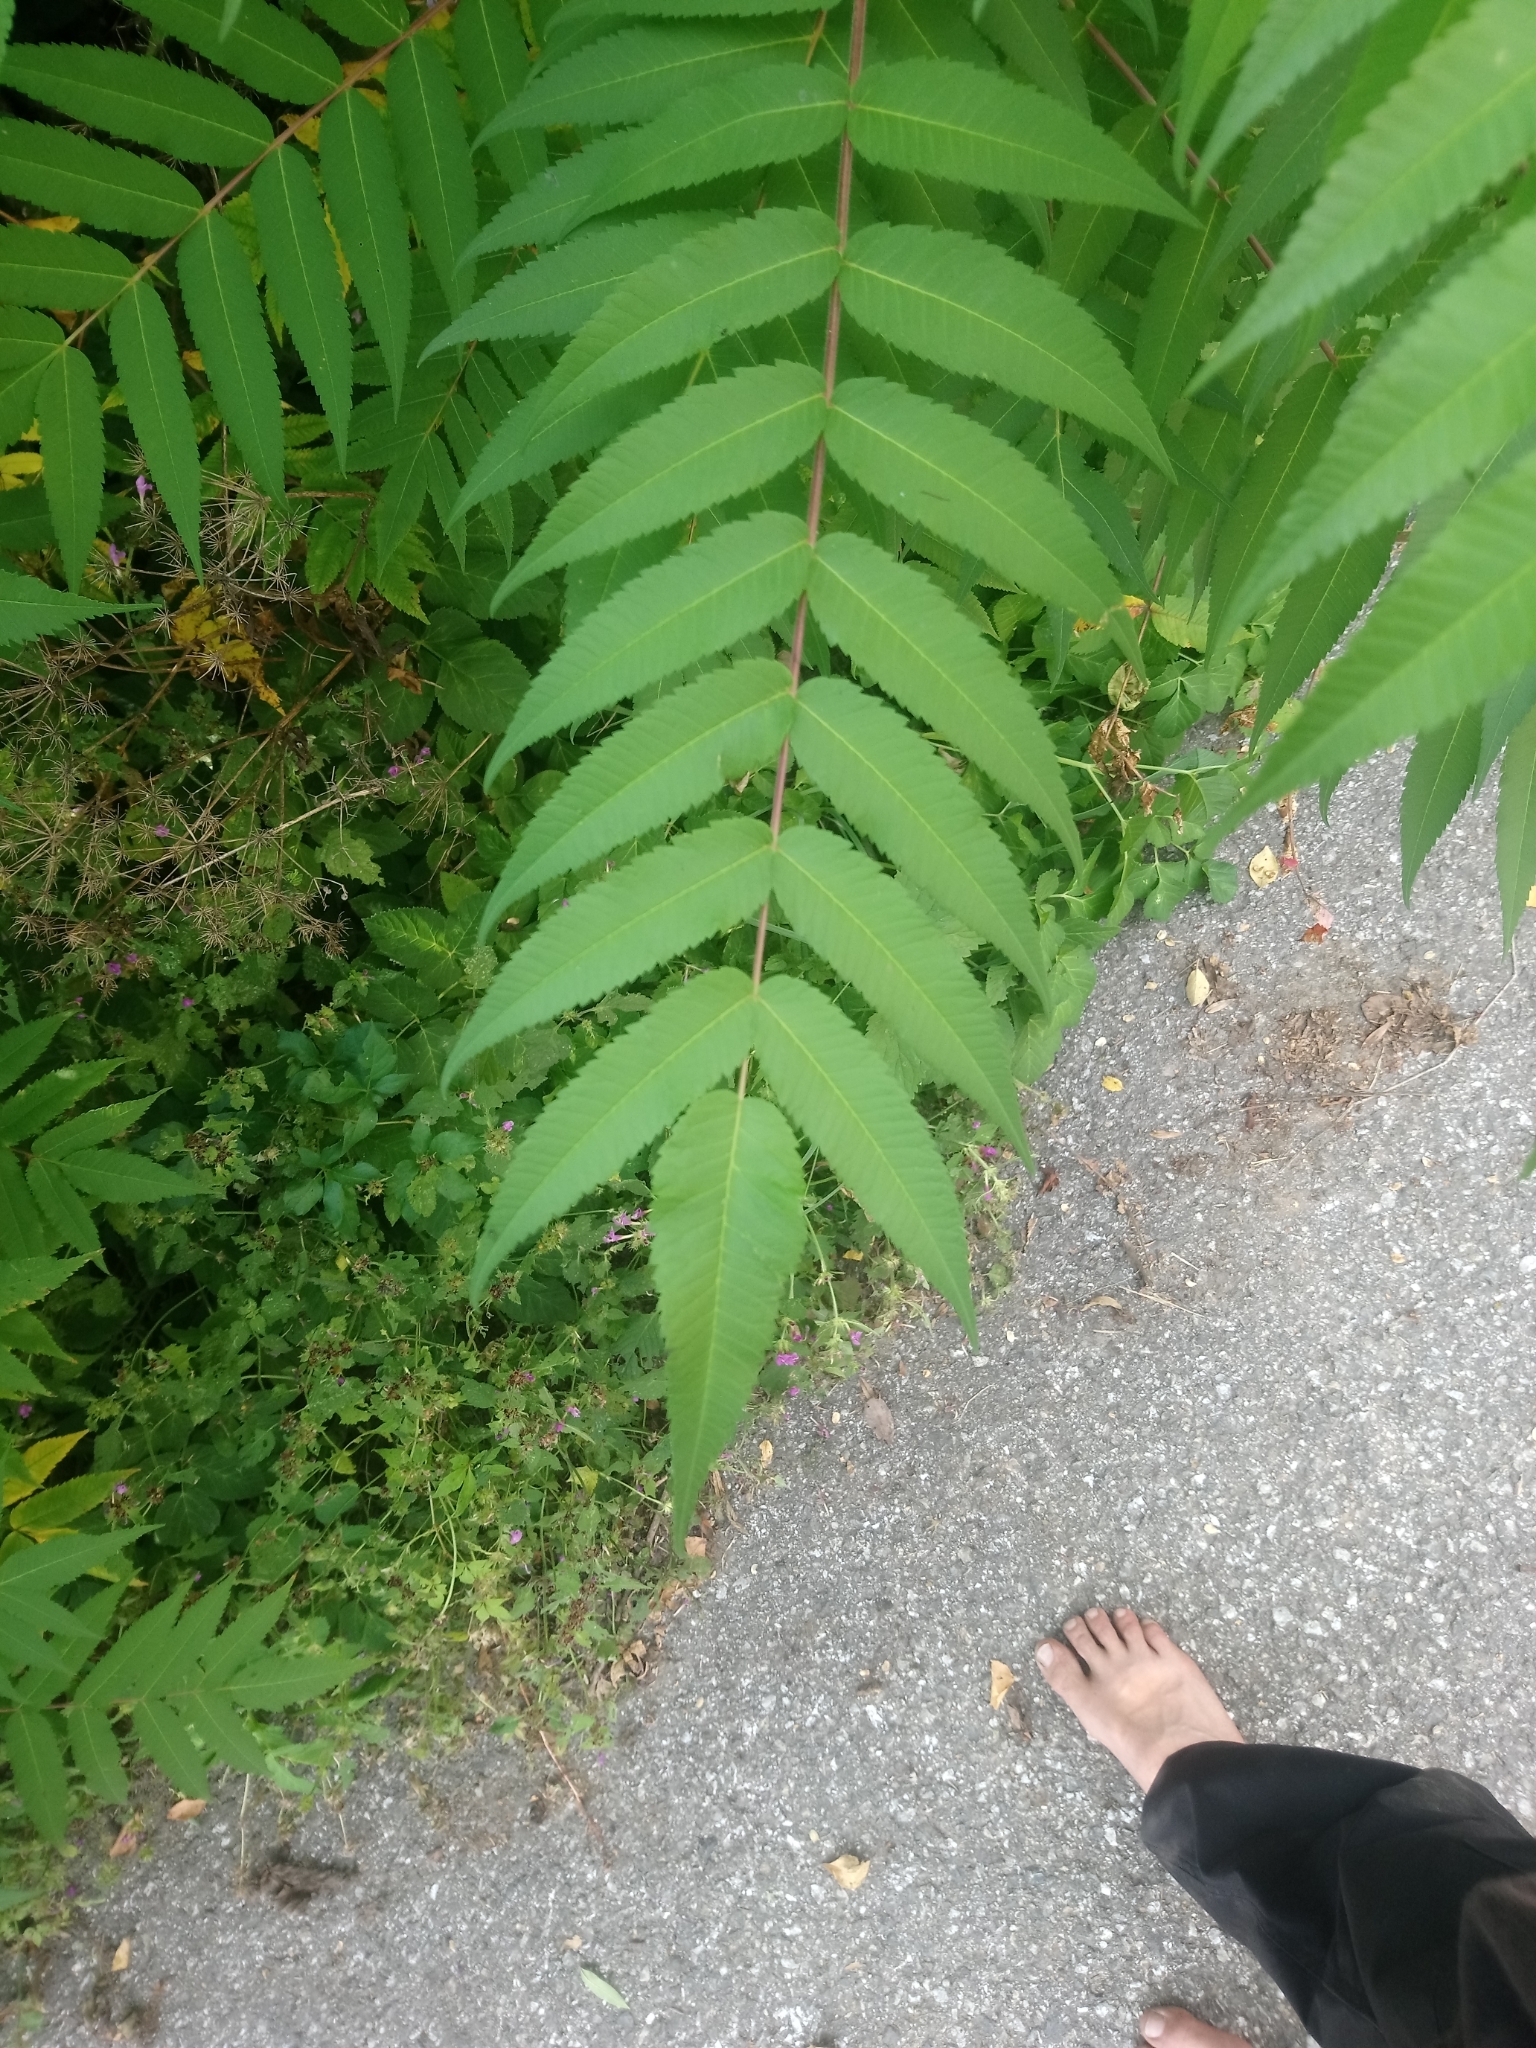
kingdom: Plantae
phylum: Tracheophyta
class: Magnoliopsida
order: Sapindales
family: Anacardiaceae
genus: Rhus
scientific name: Rhus typhina
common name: Staghorn sumac
